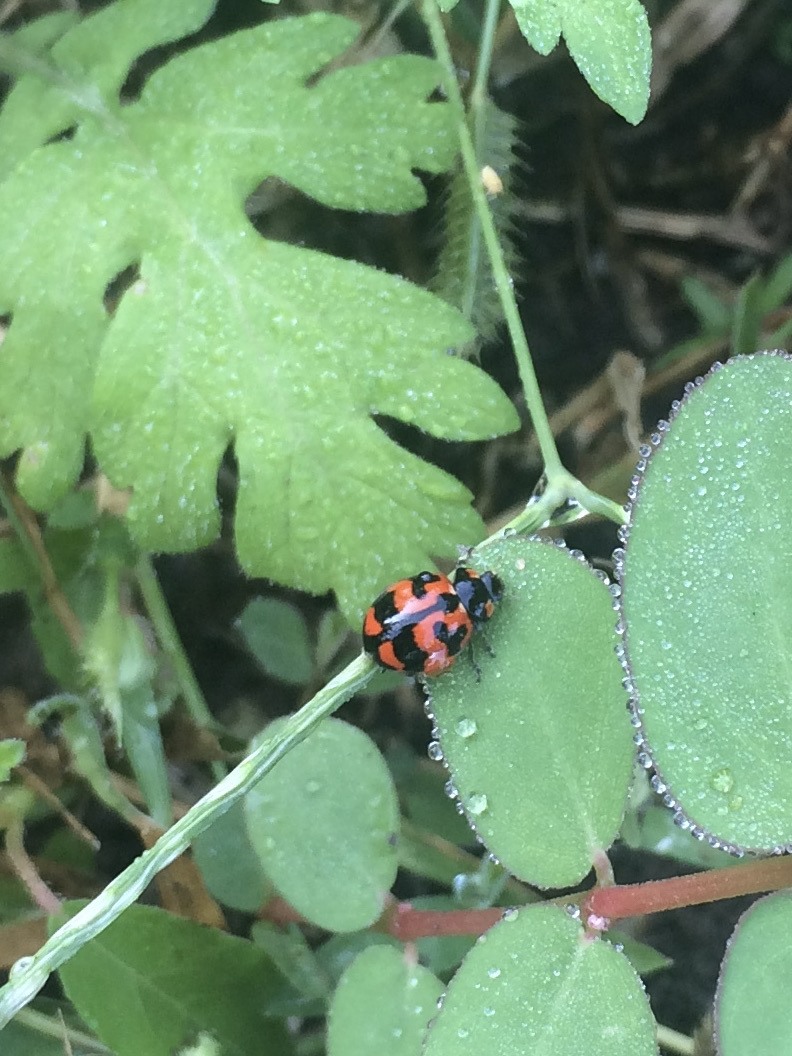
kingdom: Animalia
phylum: Arthropoda
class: Insecta
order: Coleoptera
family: Coccinellidae
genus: Coccinella
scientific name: Coccinella transversalis
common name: Transverse lady beetle
